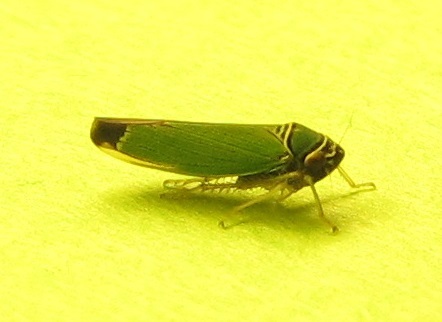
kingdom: Animalia
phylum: Arthropoda
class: Insecta
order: Hemiptera
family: Cicadellidae
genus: Tylozygus
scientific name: Tylozygus geometricus
